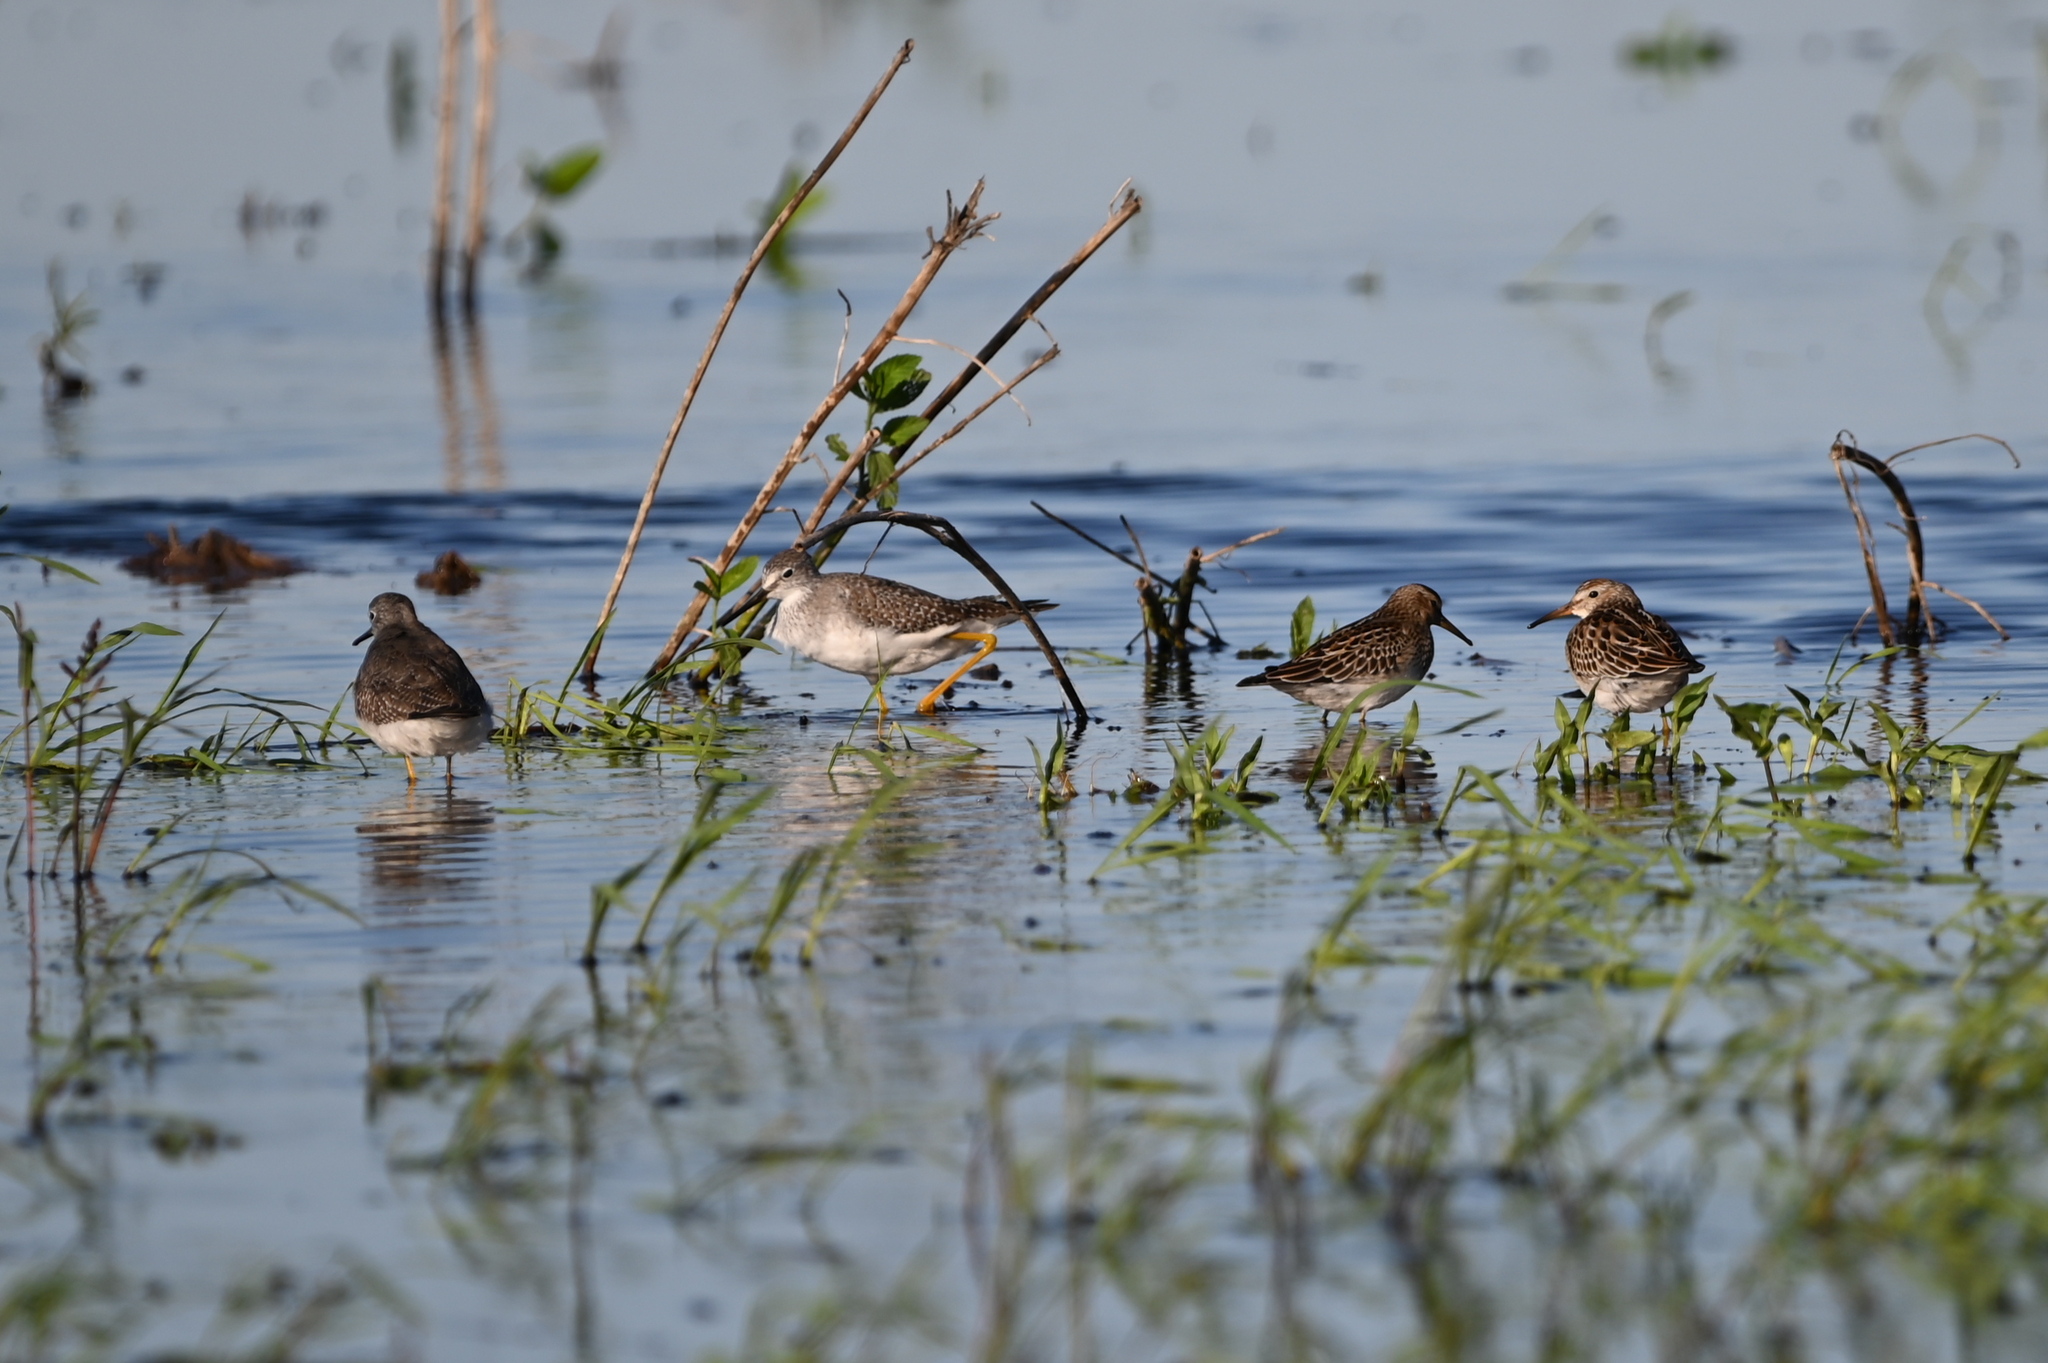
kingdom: Animalia
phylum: Chordata
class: Aves
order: Charadriiformes
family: Scolopacidae
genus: Calidris
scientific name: Calidris melanotos
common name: Pectoral sandpiper
